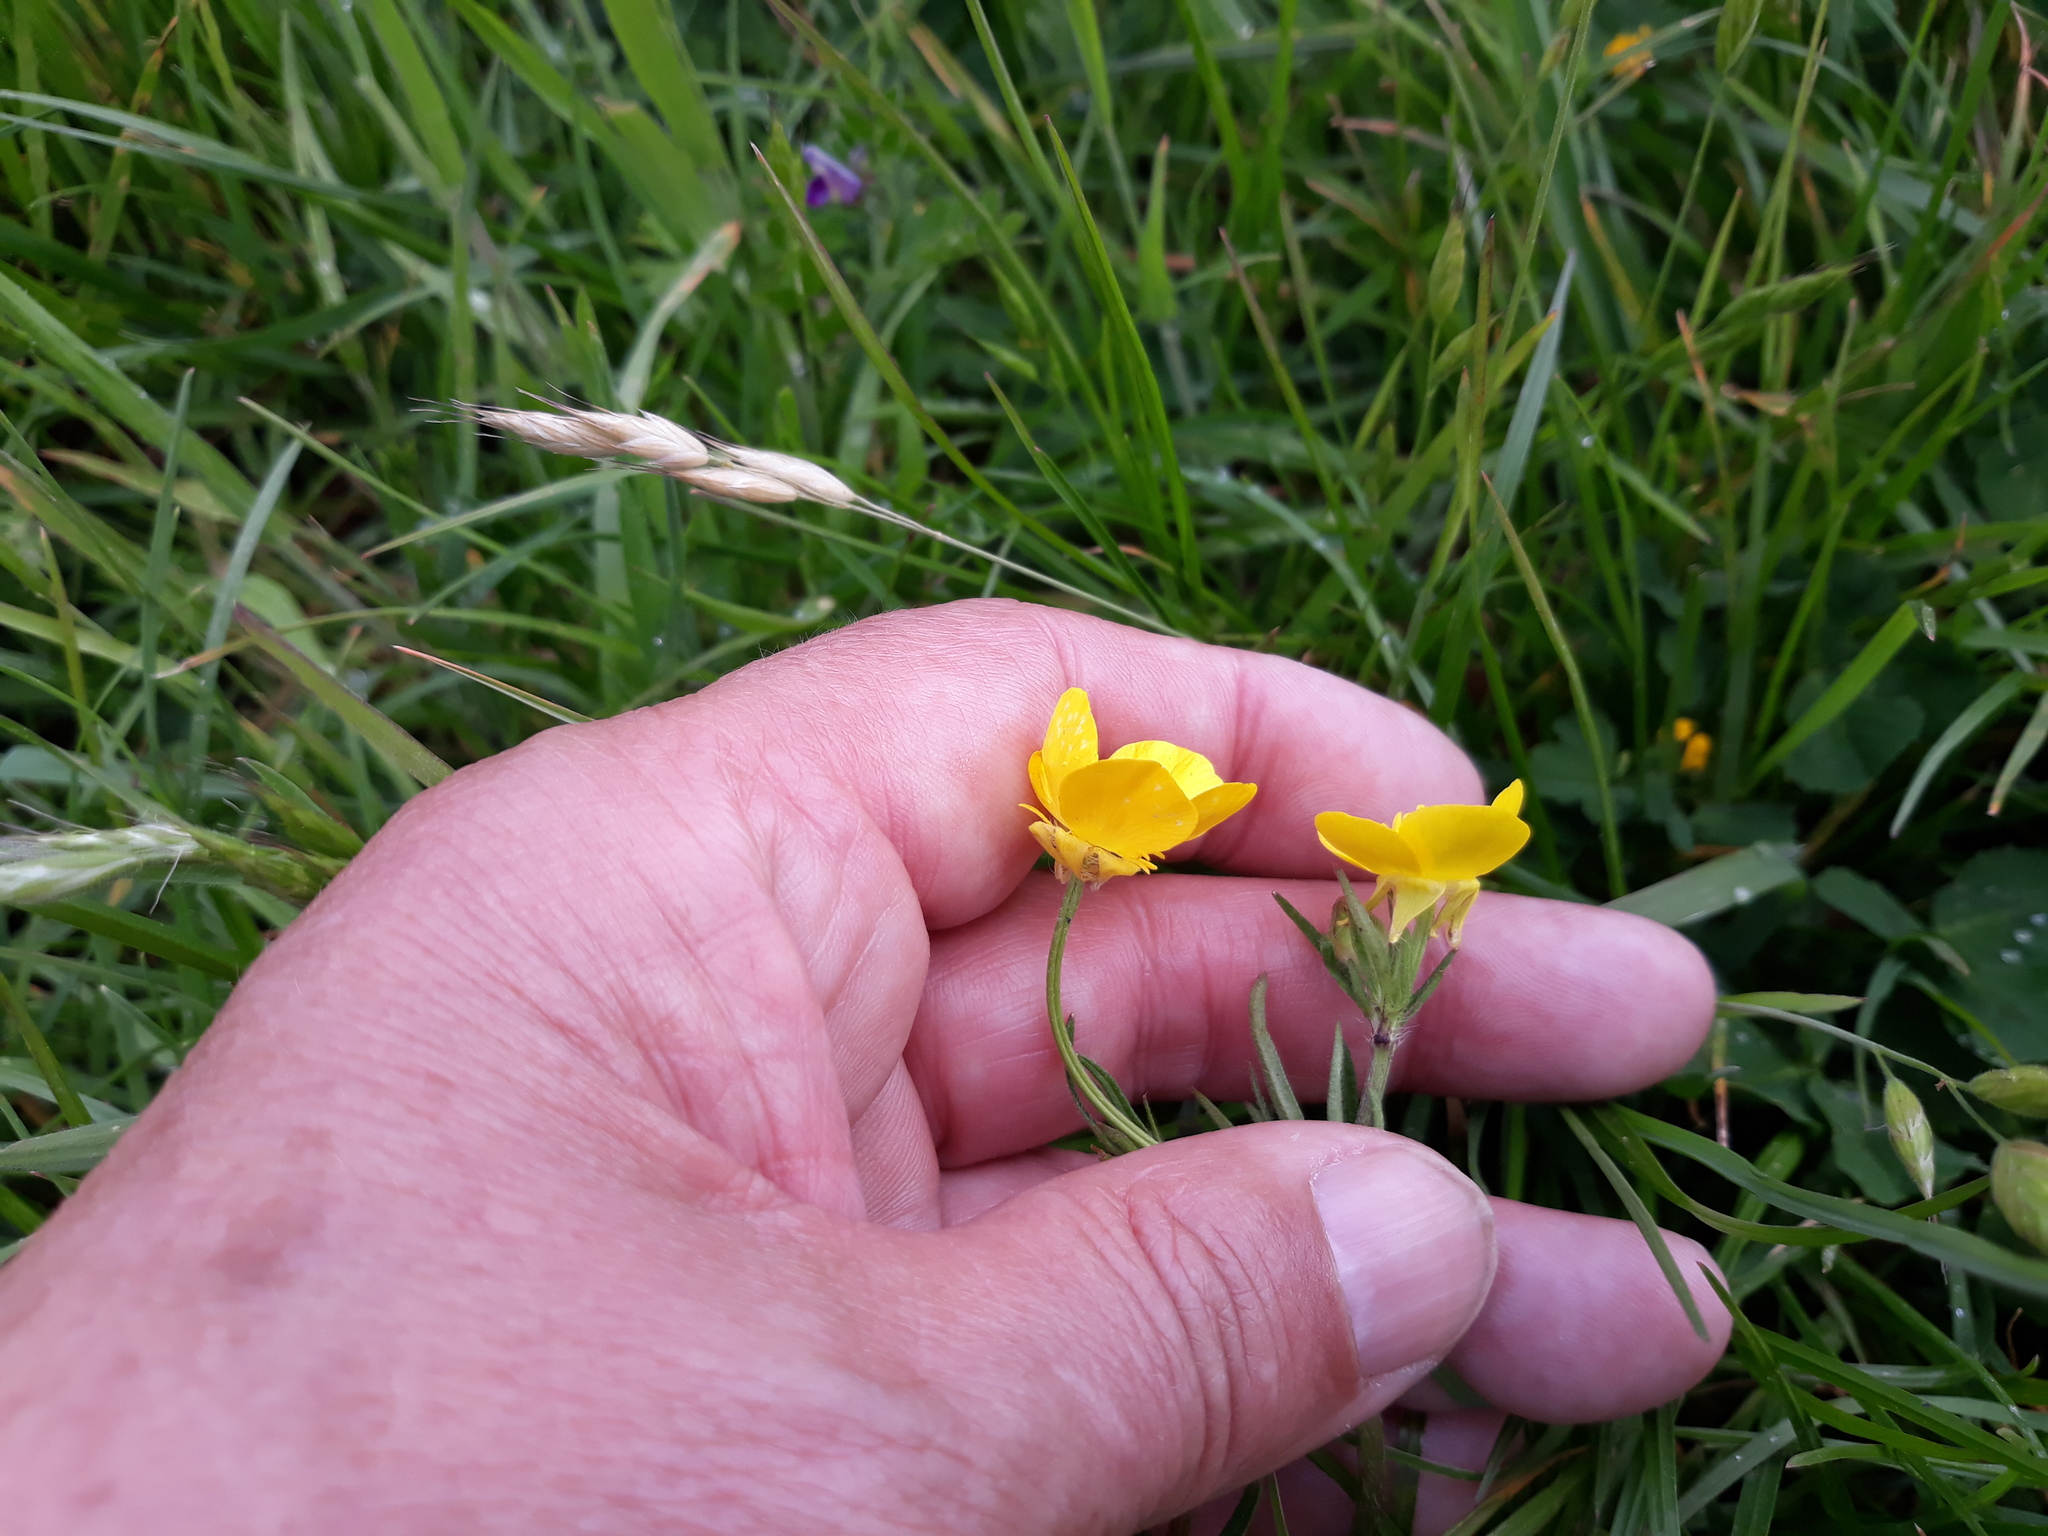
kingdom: Plantae
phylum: Tracheophyta
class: Magnoliopsida
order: Ranunculales
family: Ranunculaceae
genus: Ranunculus
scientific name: Ranunculus bulbosus
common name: Bulbous buttercup
